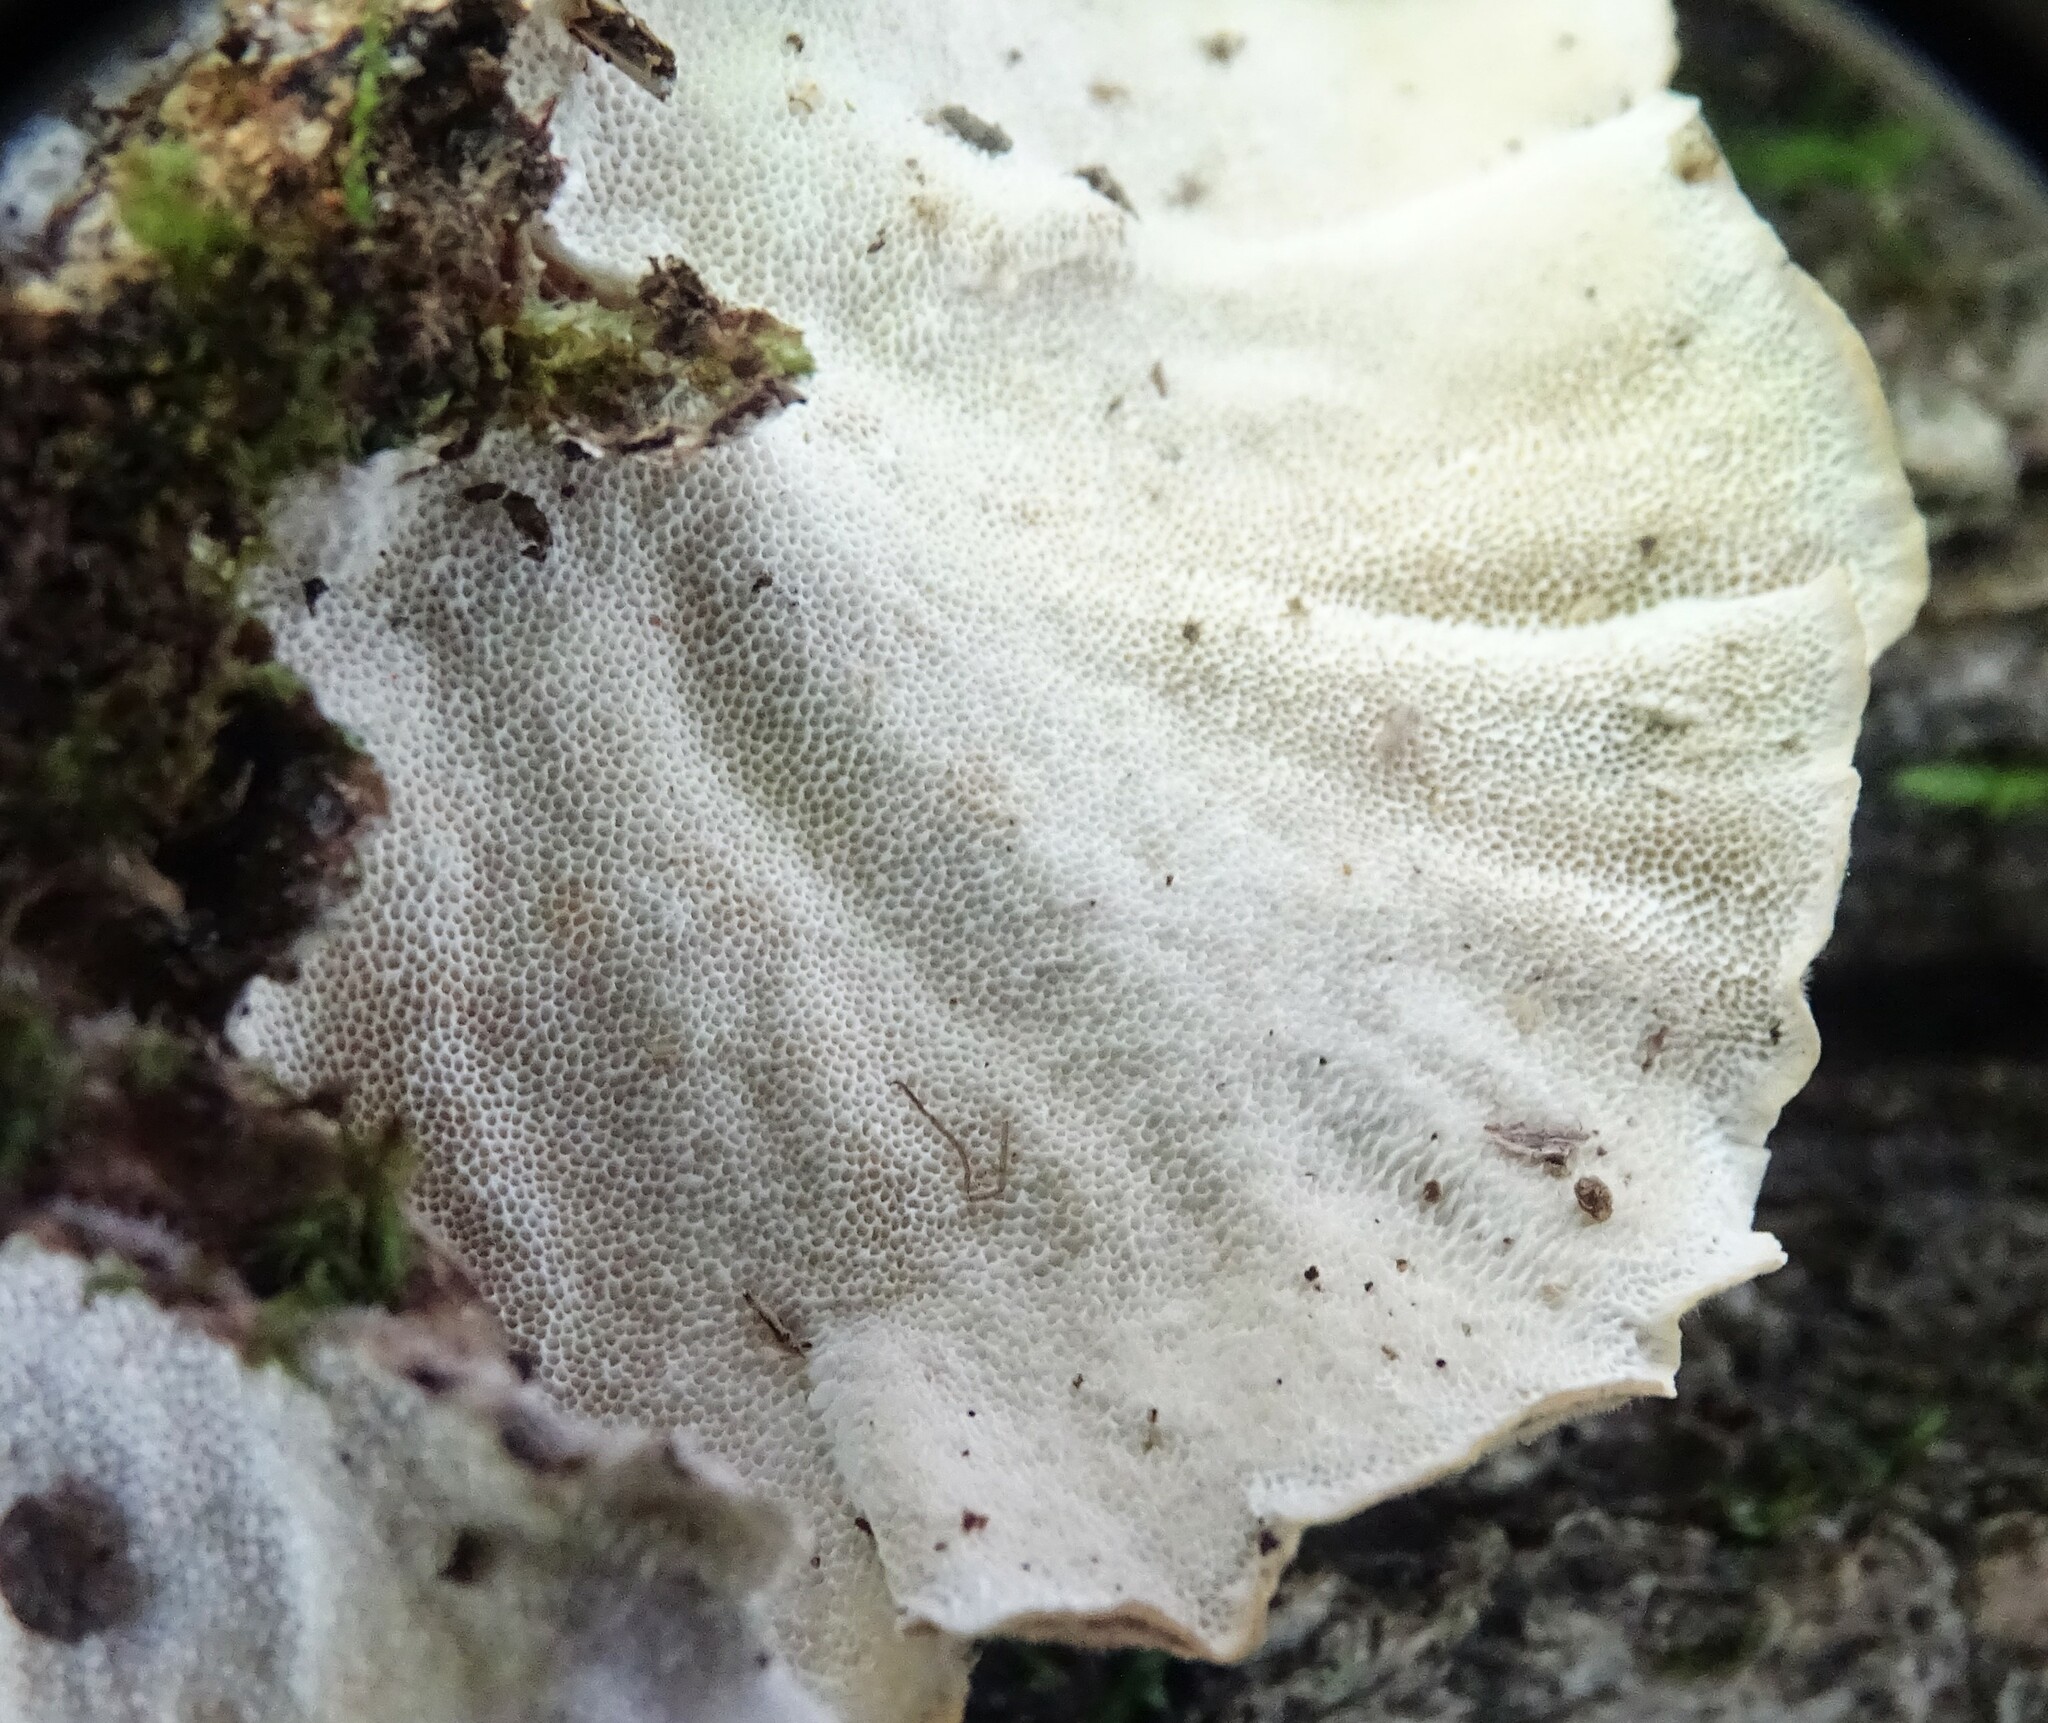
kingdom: Fungi
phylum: Basidiomycota
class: Agaricomycetes
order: Polyporales
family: Polyporaceae
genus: Trametes
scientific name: Trametes versicolor
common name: Turkeytail
